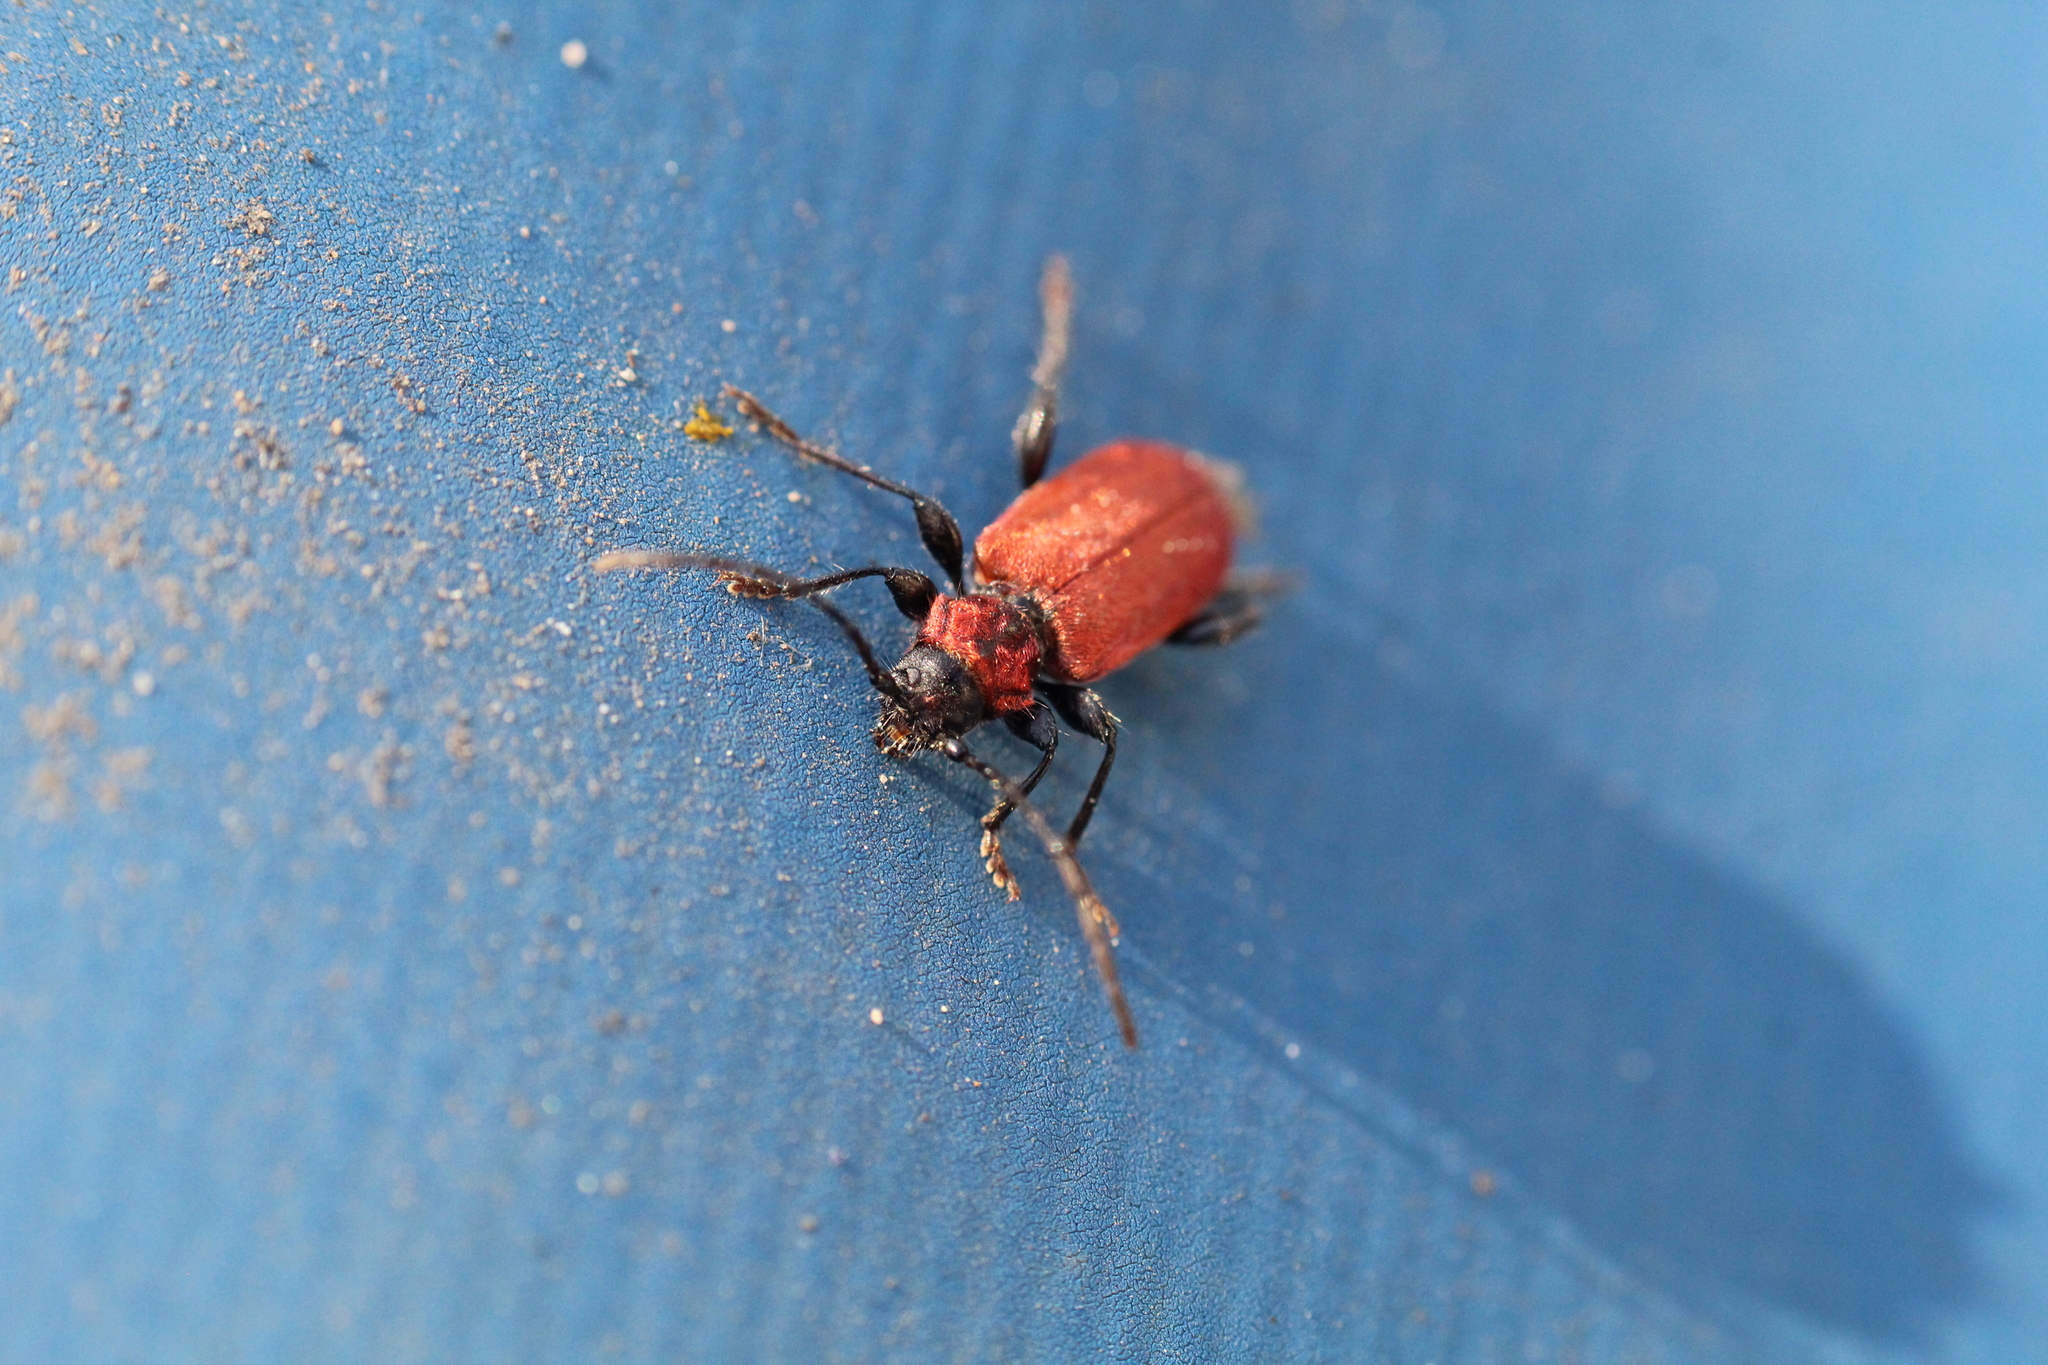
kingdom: Animalia
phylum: Arthropoda
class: Insecta
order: Coleoptera
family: Cerambycidae
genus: Pyrrhidium
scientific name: Pyrrhidium sanguineum
